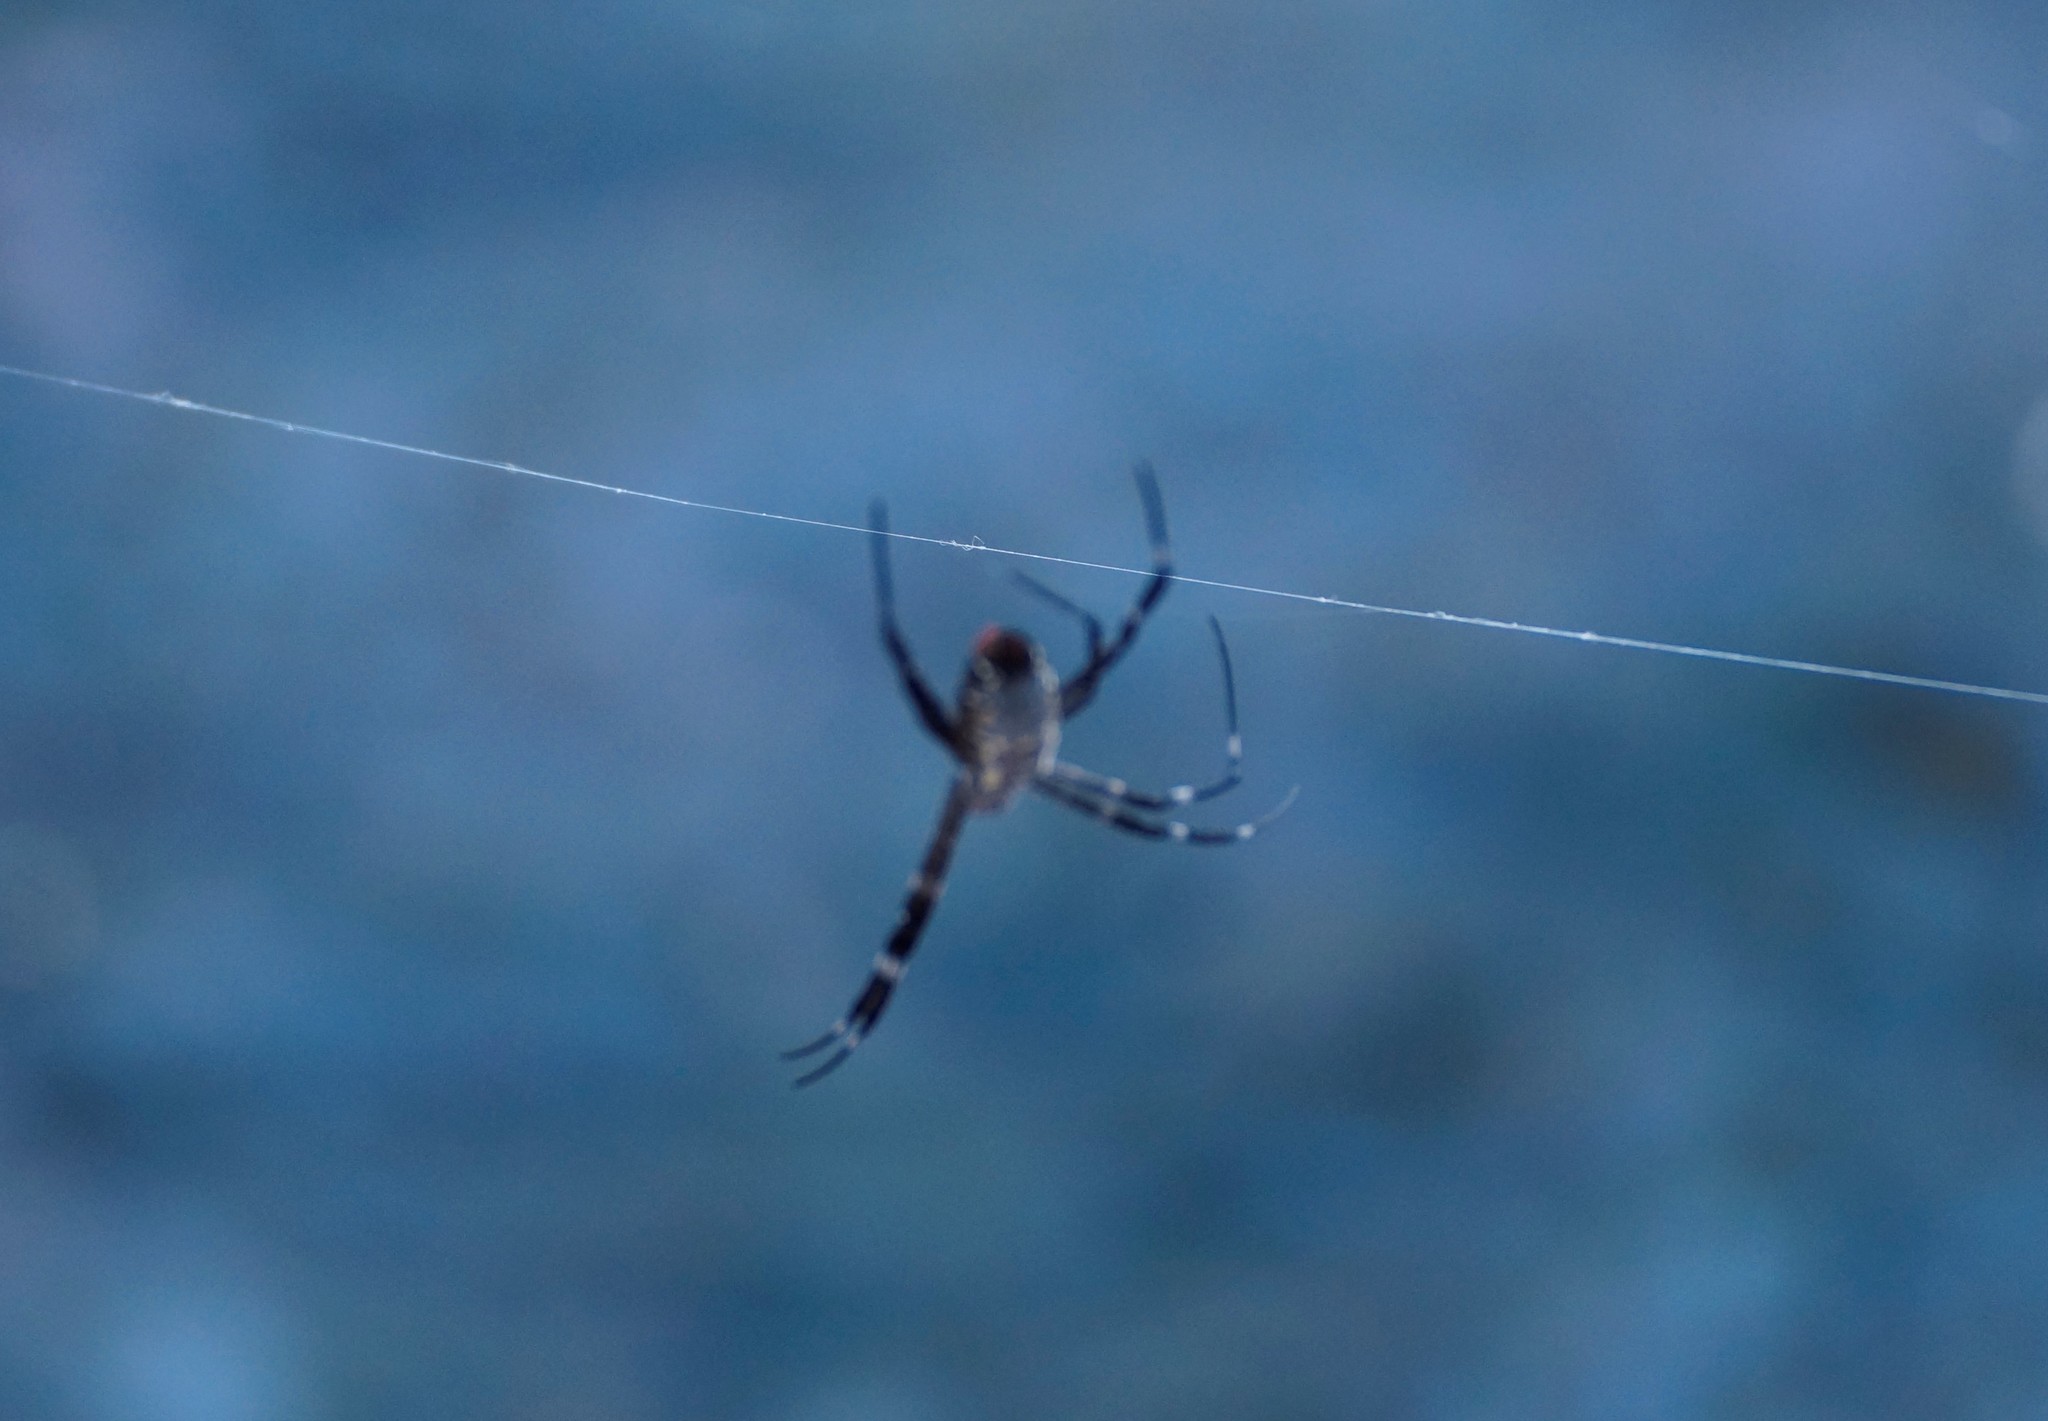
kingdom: Animalia
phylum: Arthropoda
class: Arachnida
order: Araneae
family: Araneidae
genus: Argiope
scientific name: Argiope radon
